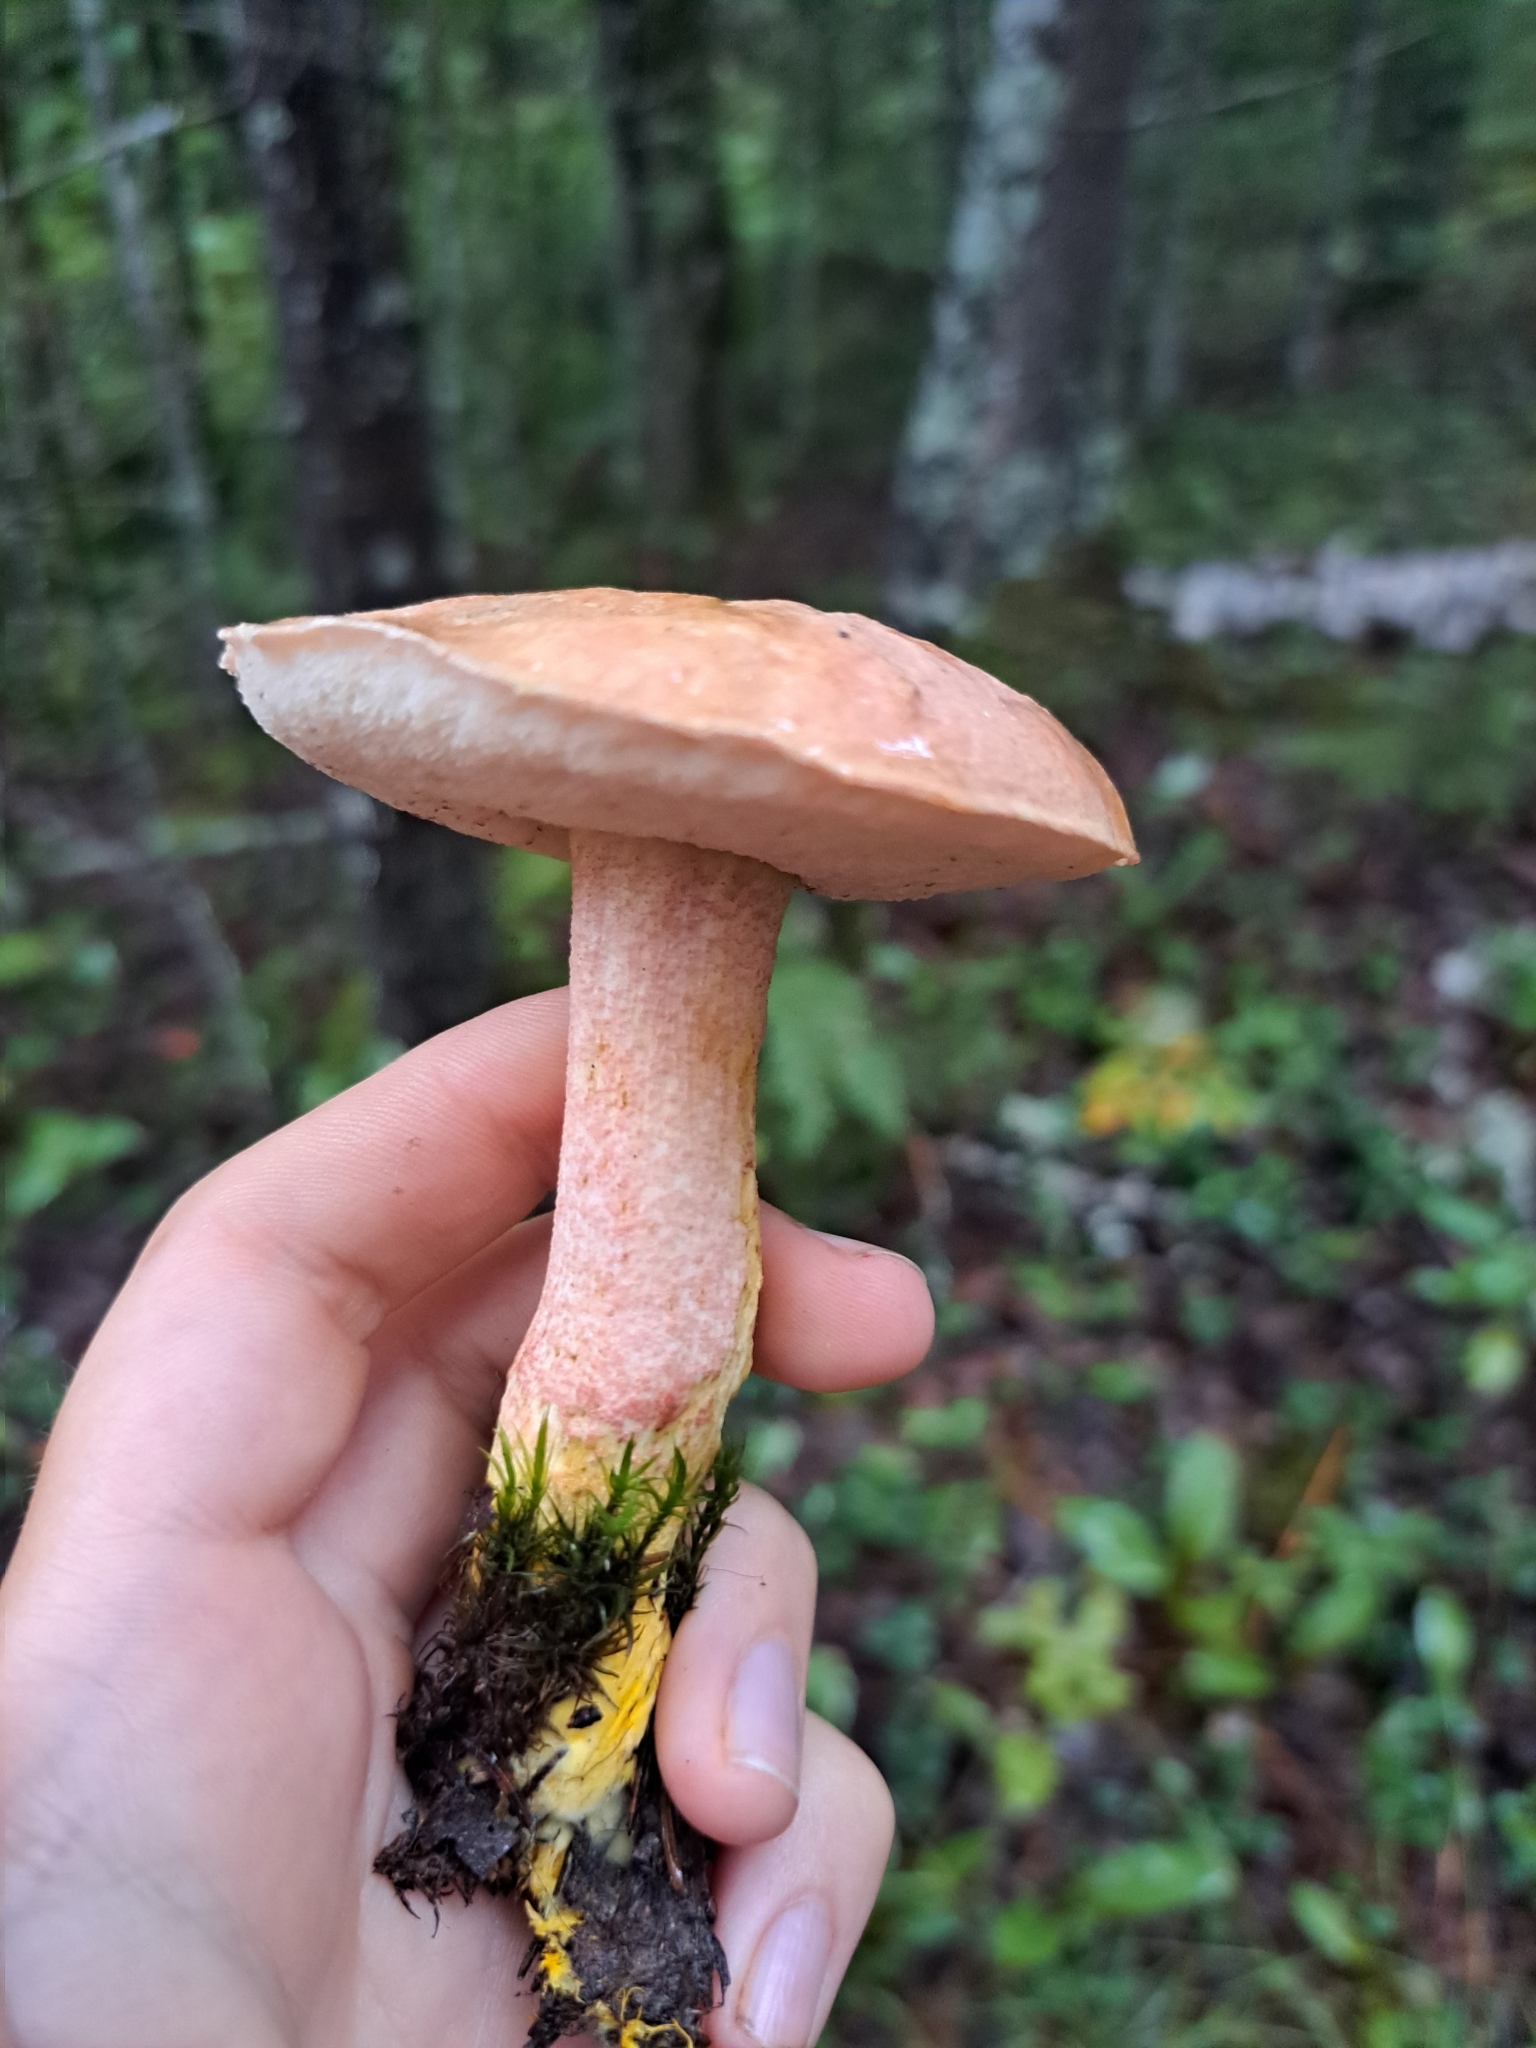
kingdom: Fungi
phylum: Basidiomycota
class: Agaricomycetes
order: Boletales
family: Boletaceae
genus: Harrya
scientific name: Harrya chromipes
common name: Chrome-footed bolete
